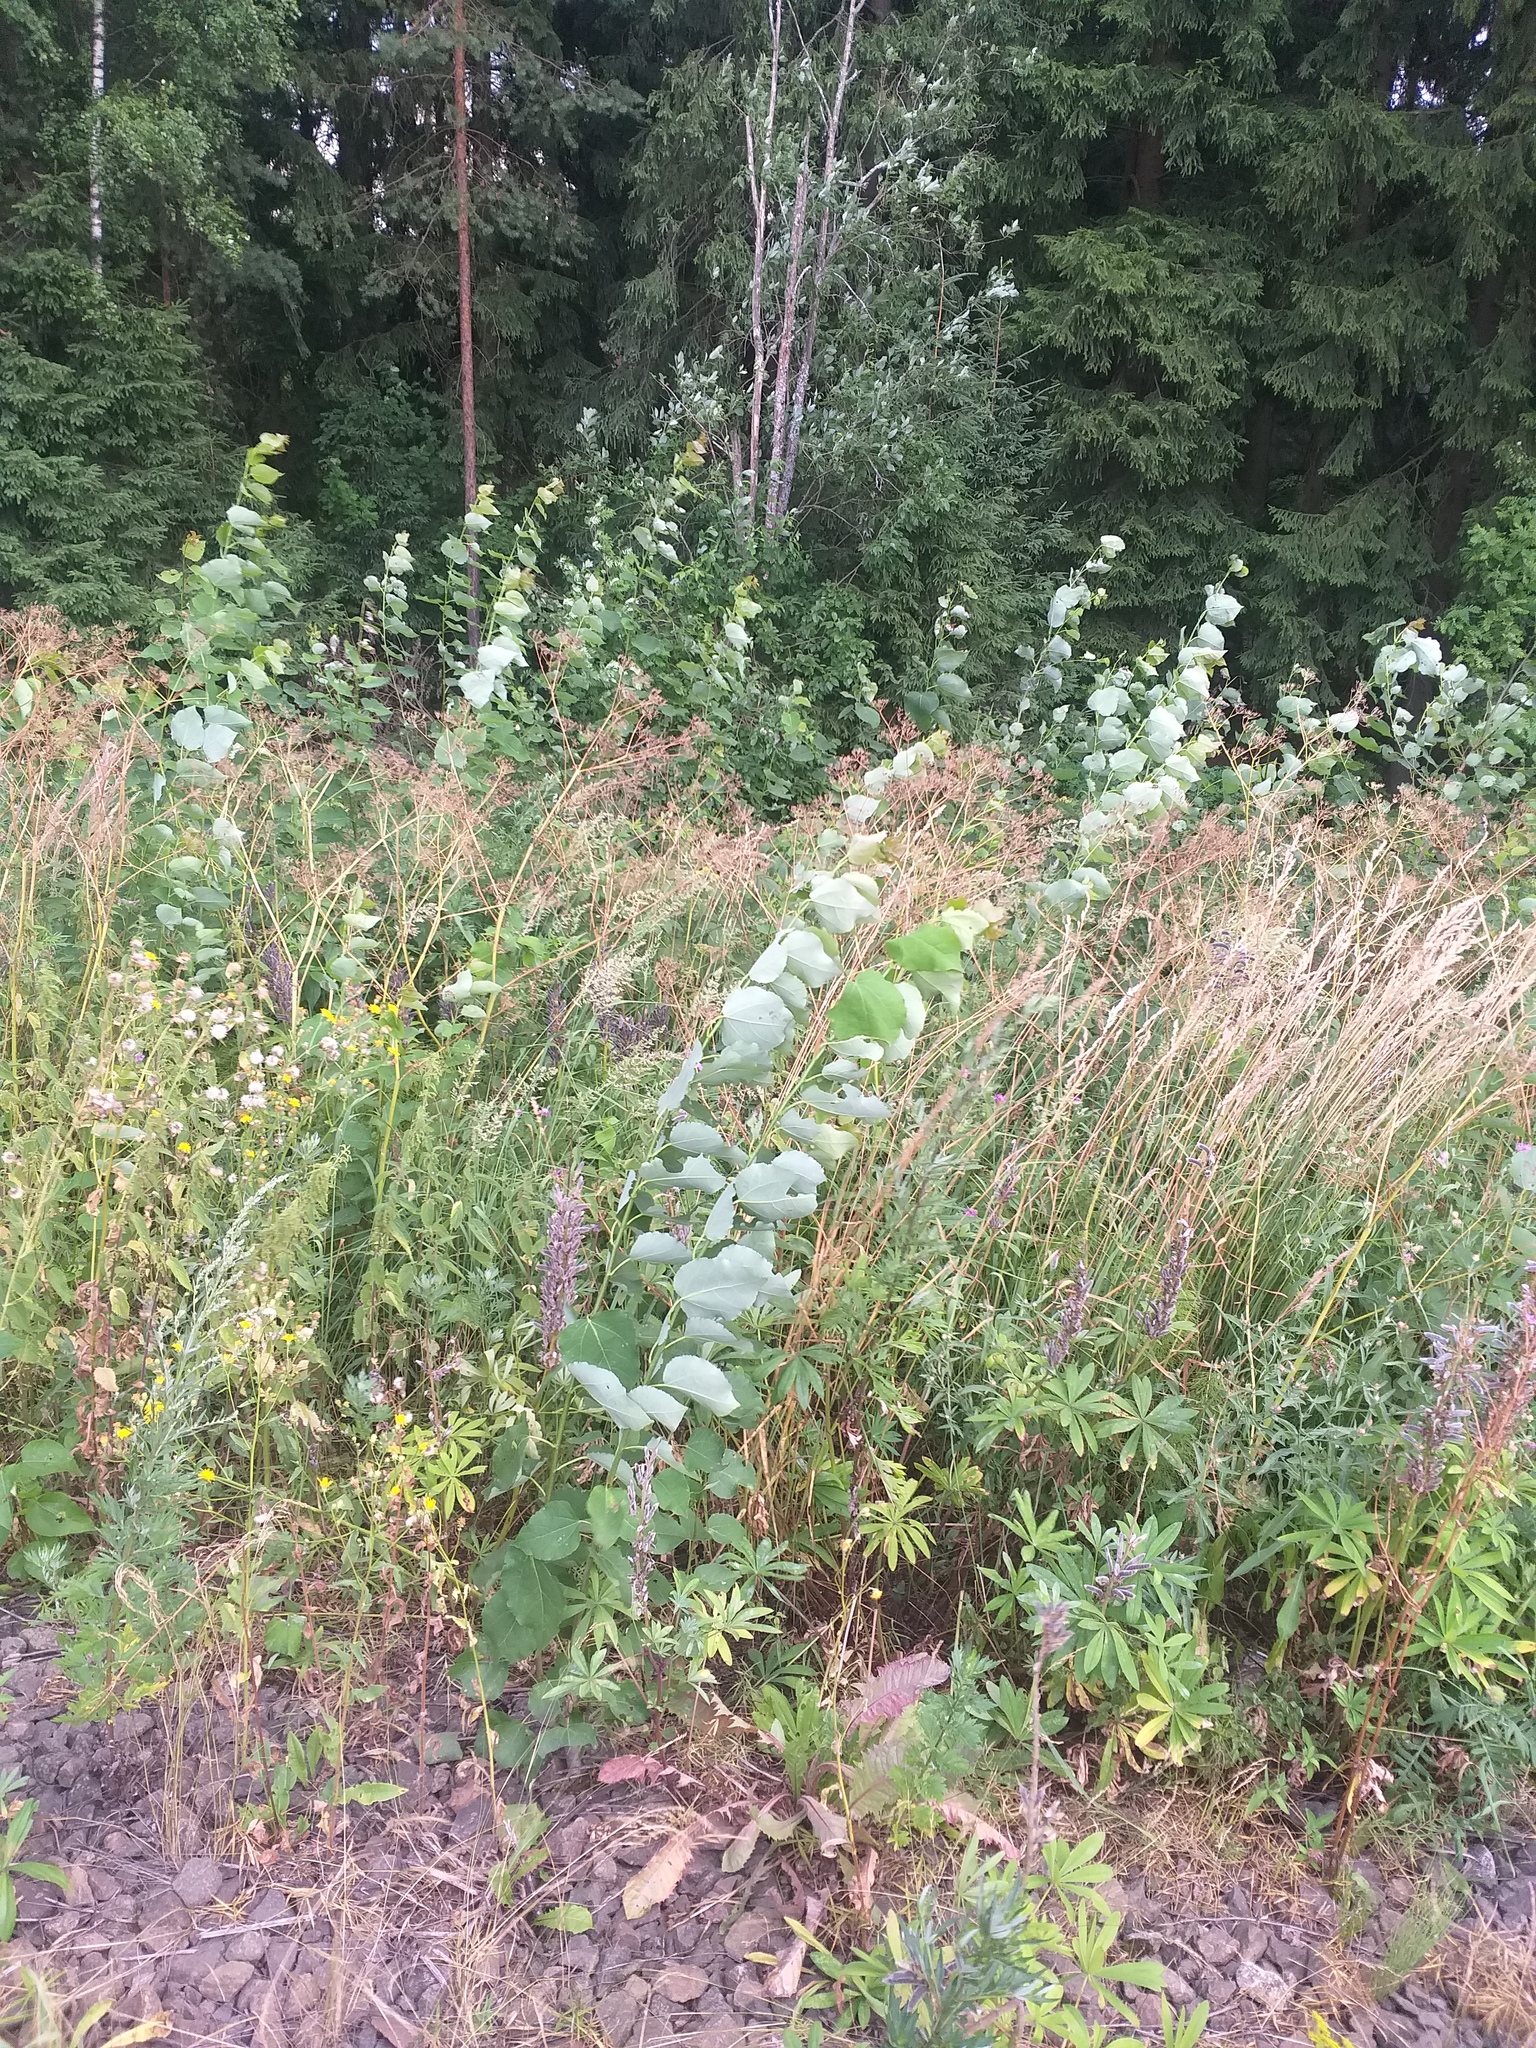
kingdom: Plantae
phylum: Tracheophyta
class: Magnoliopsida
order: Malpighiales
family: Salicaceae
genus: Populus
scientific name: Populus tremula
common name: European aspen
